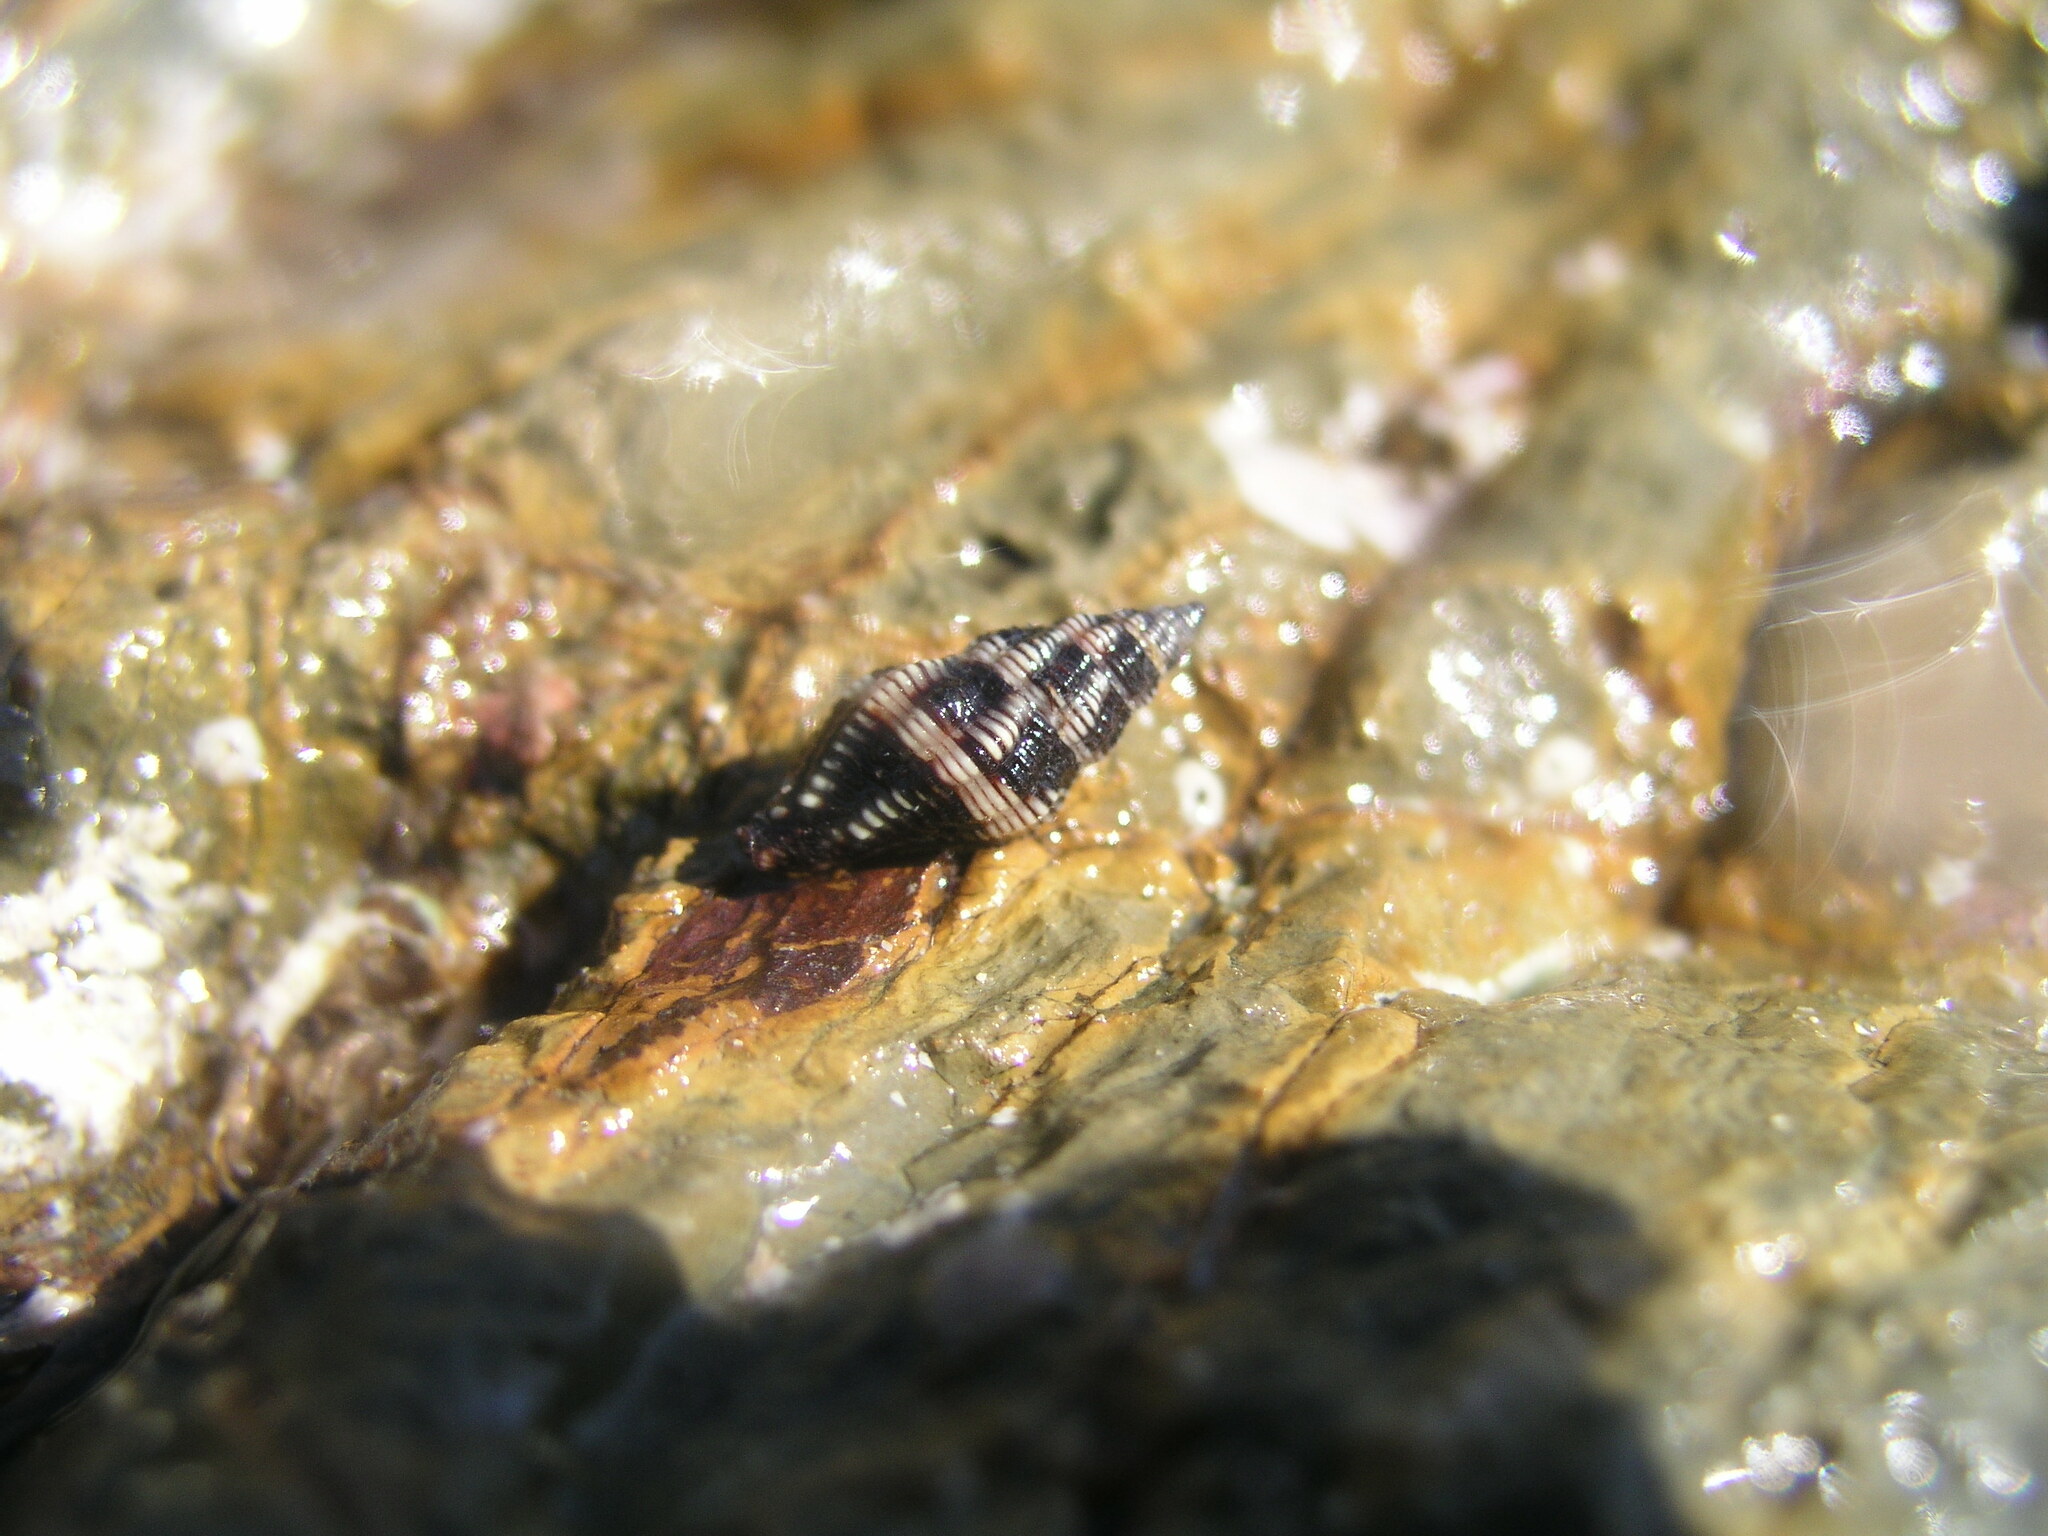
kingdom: Animalia
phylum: Mollusca
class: Gastropoda
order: Neogastropoda
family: Pisaniidae
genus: Engina
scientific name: Engina australis
